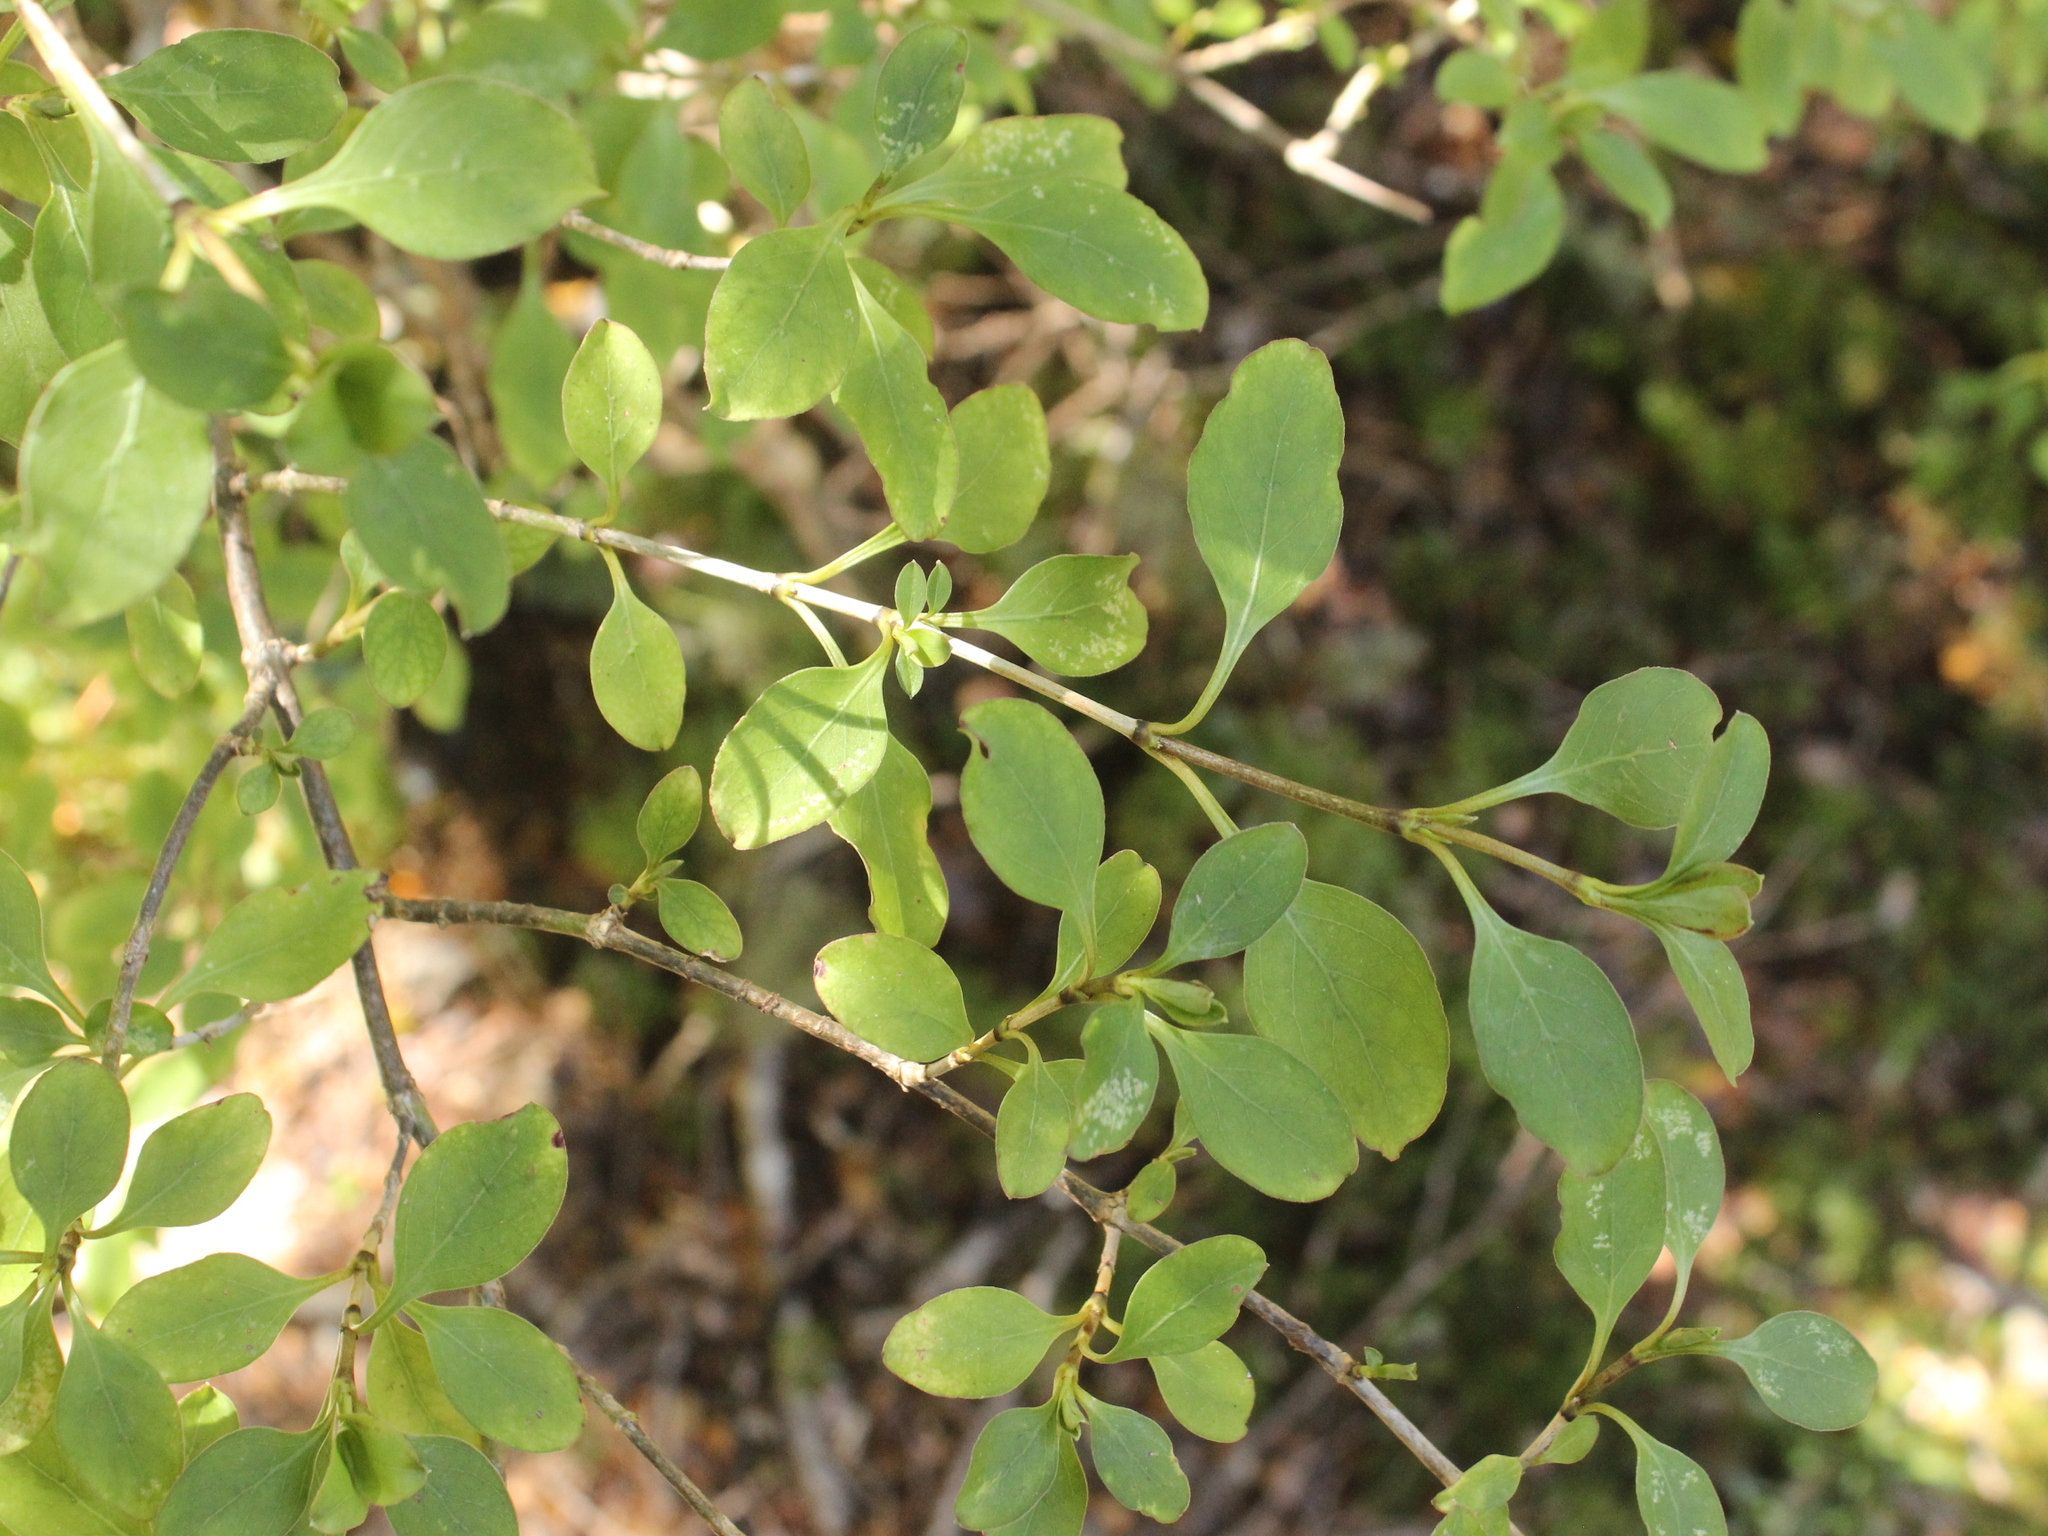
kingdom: Plantae
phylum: Tracheophyta
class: Magnoliopsida
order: Gentianales
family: Rubiaceae
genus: Coprosma
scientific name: Coprosma foetidissima
